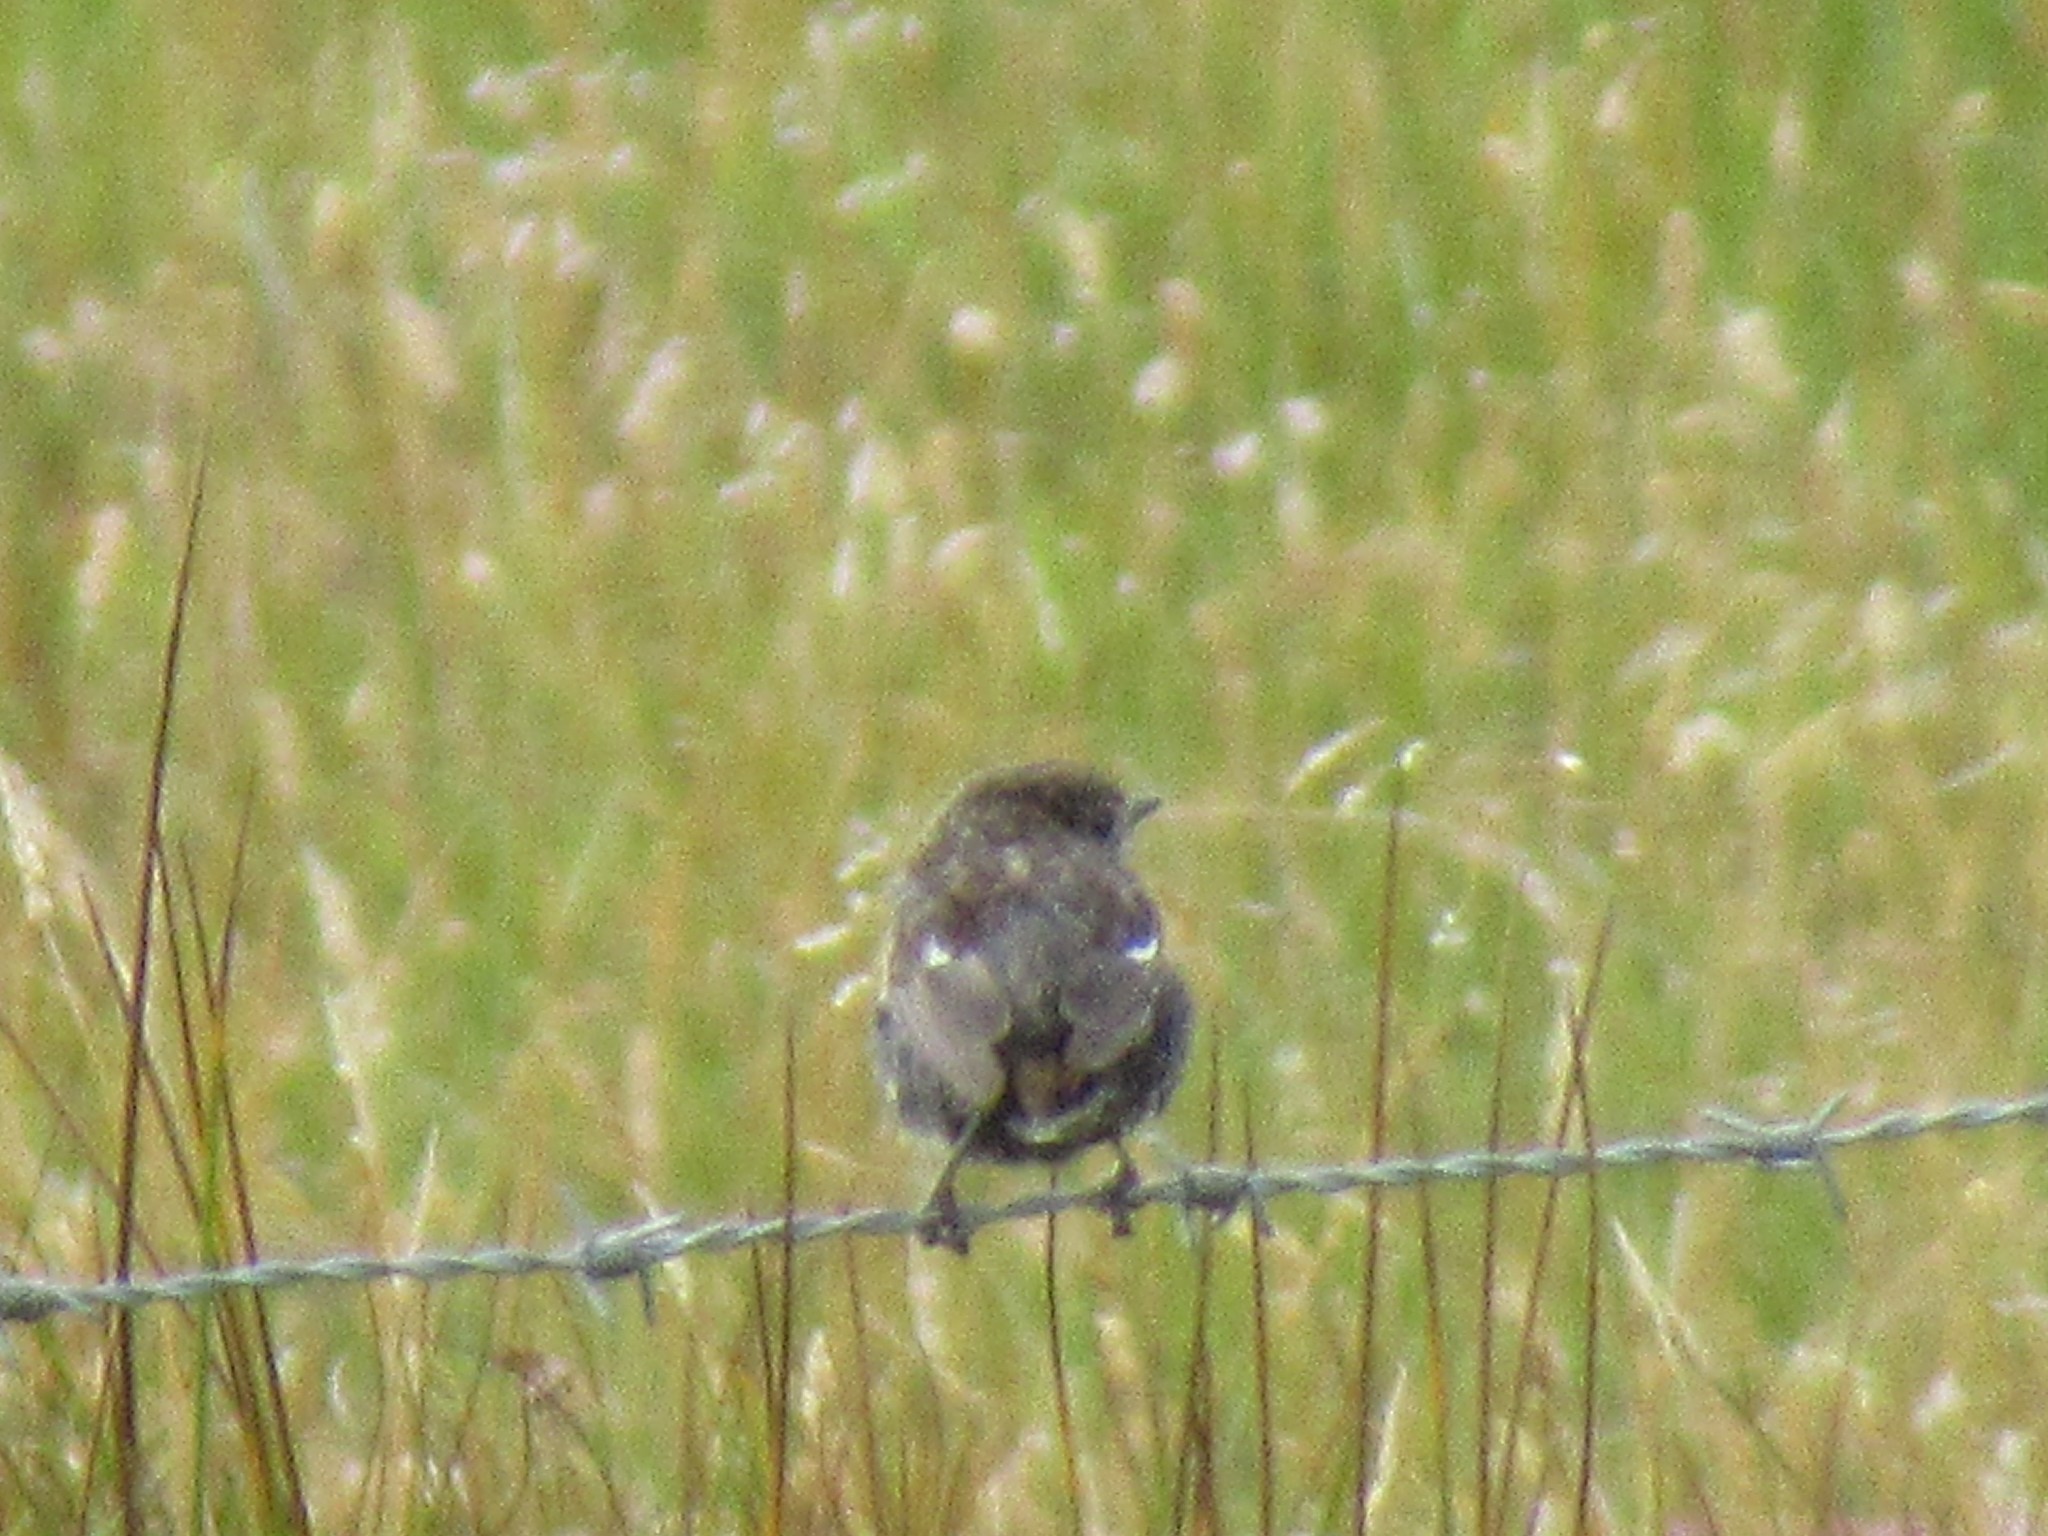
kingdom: Animalia
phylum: Chordata
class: Aves
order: Passeriformes
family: Muscicapidae
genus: Saxicola
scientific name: Saxicola rubicola
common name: European stonechat
